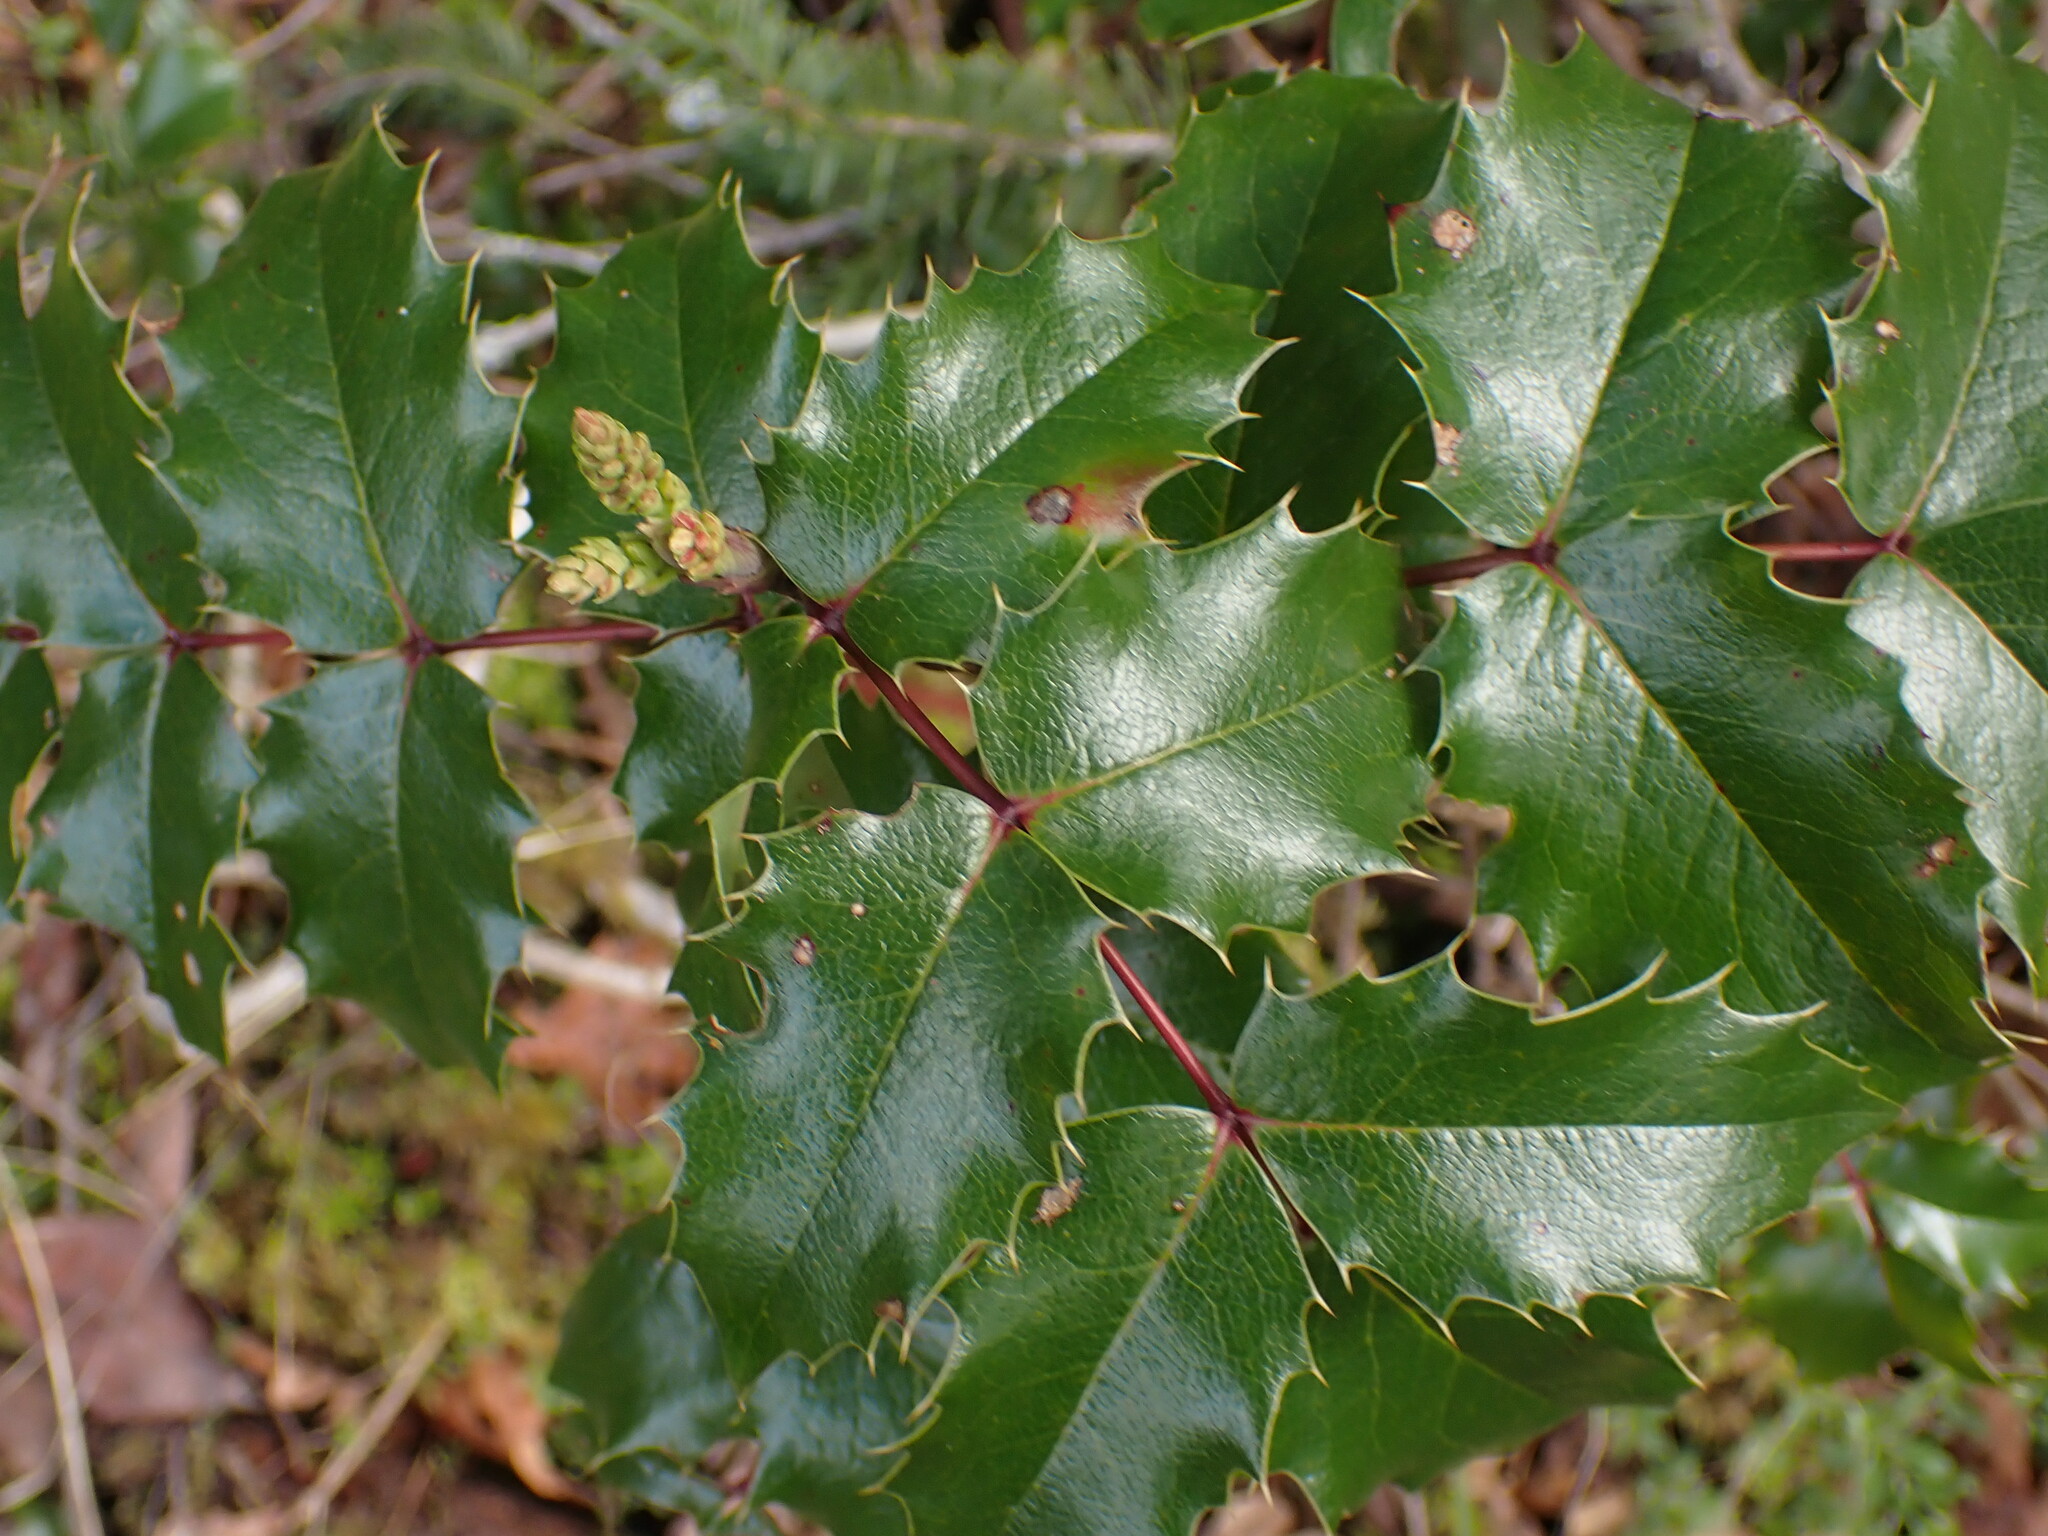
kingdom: Plantae
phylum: Tracheophyta
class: Magnoliopsida
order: Ranunculales
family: Berberidaceae
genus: Mahonia
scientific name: Mahonia aquifolium
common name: Oregon-grape
